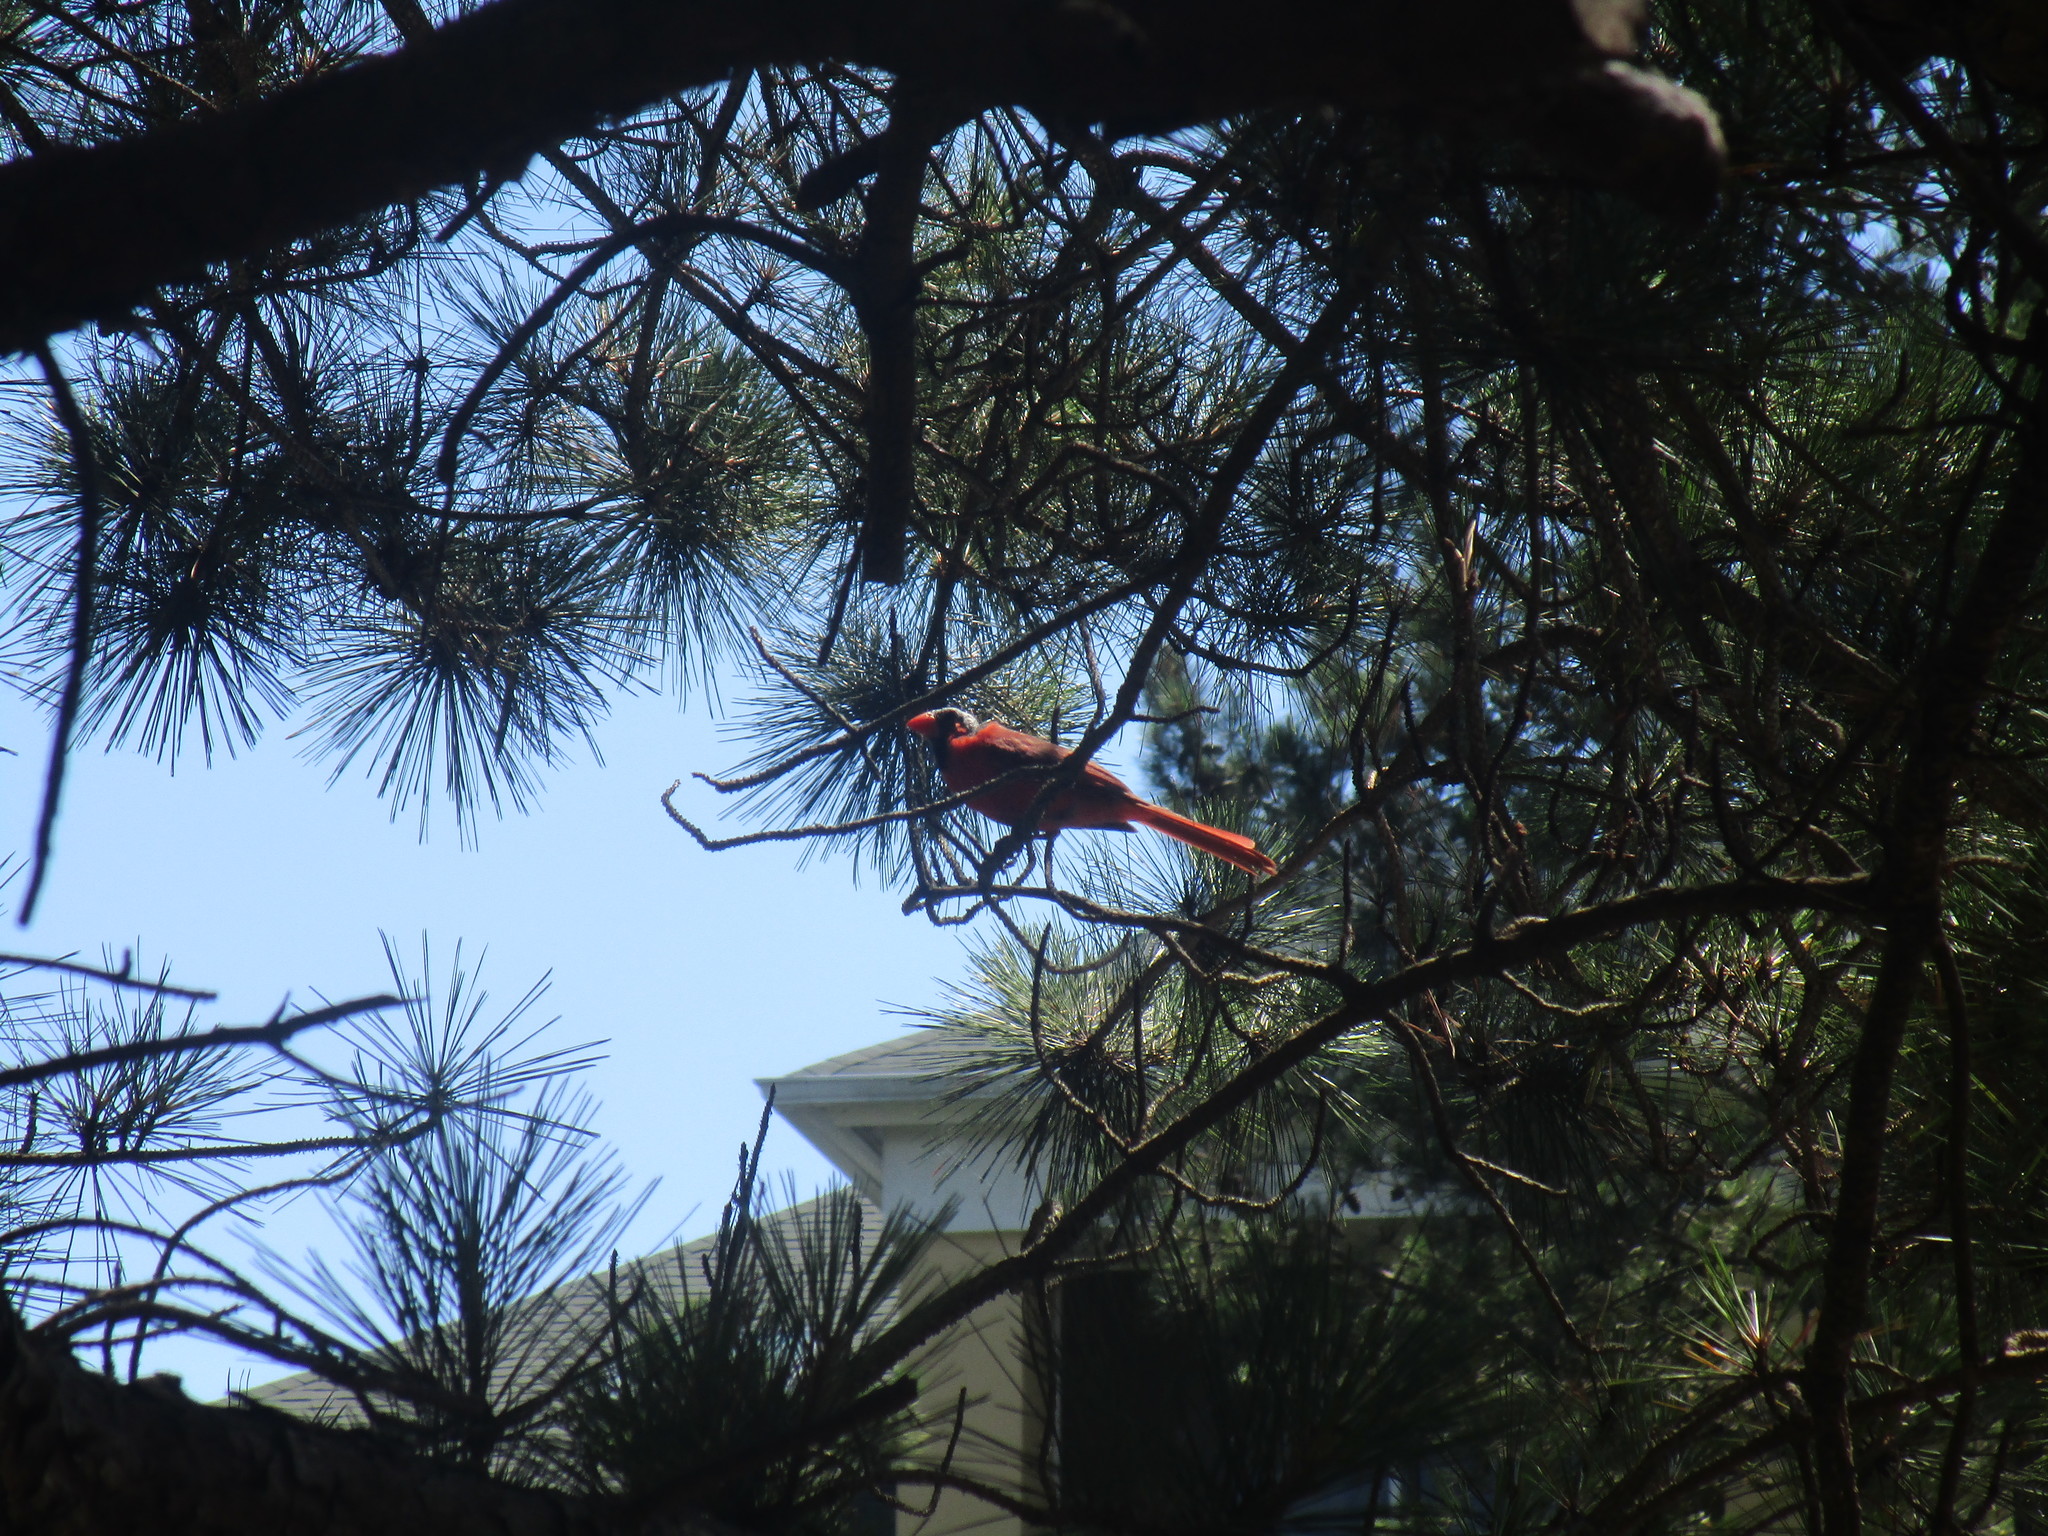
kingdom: Animalia
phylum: Chordata
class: Aves
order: Passeriformes
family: Cardinalidae
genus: Cardinalis
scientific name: Cardinalis cardinalis
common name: Northern cardinal
